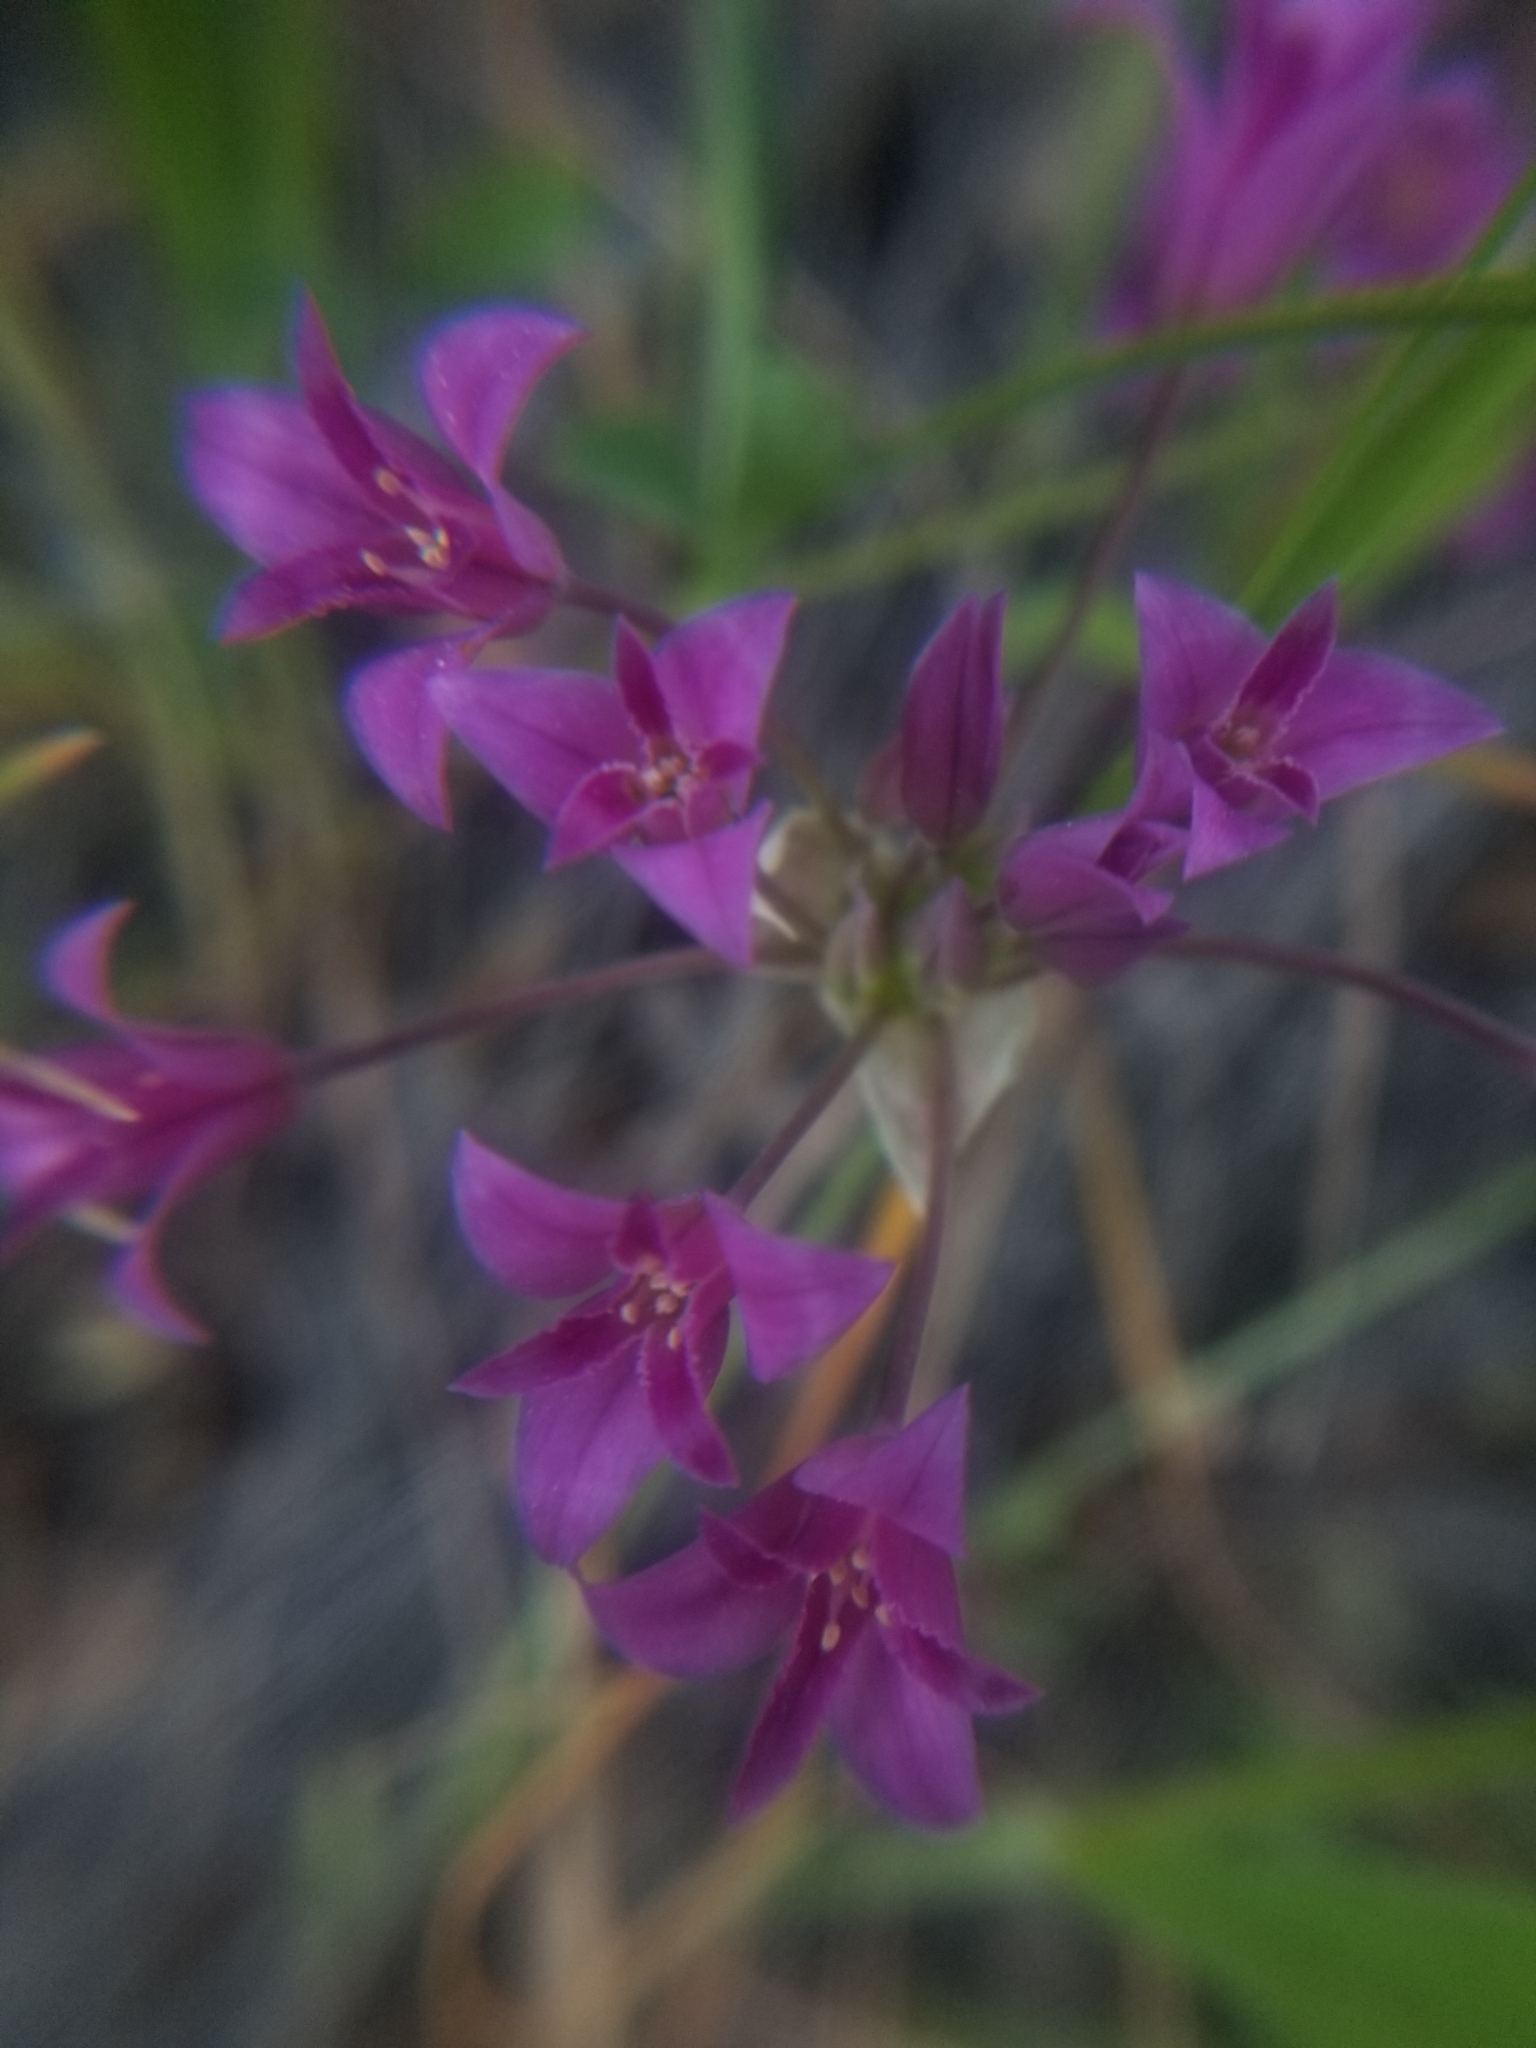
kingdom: Plantae
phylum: Tracheophyta
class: Liliopsida
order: Asparagales
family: Amaryllidaceae
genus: Allium
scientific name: Allium crispum
